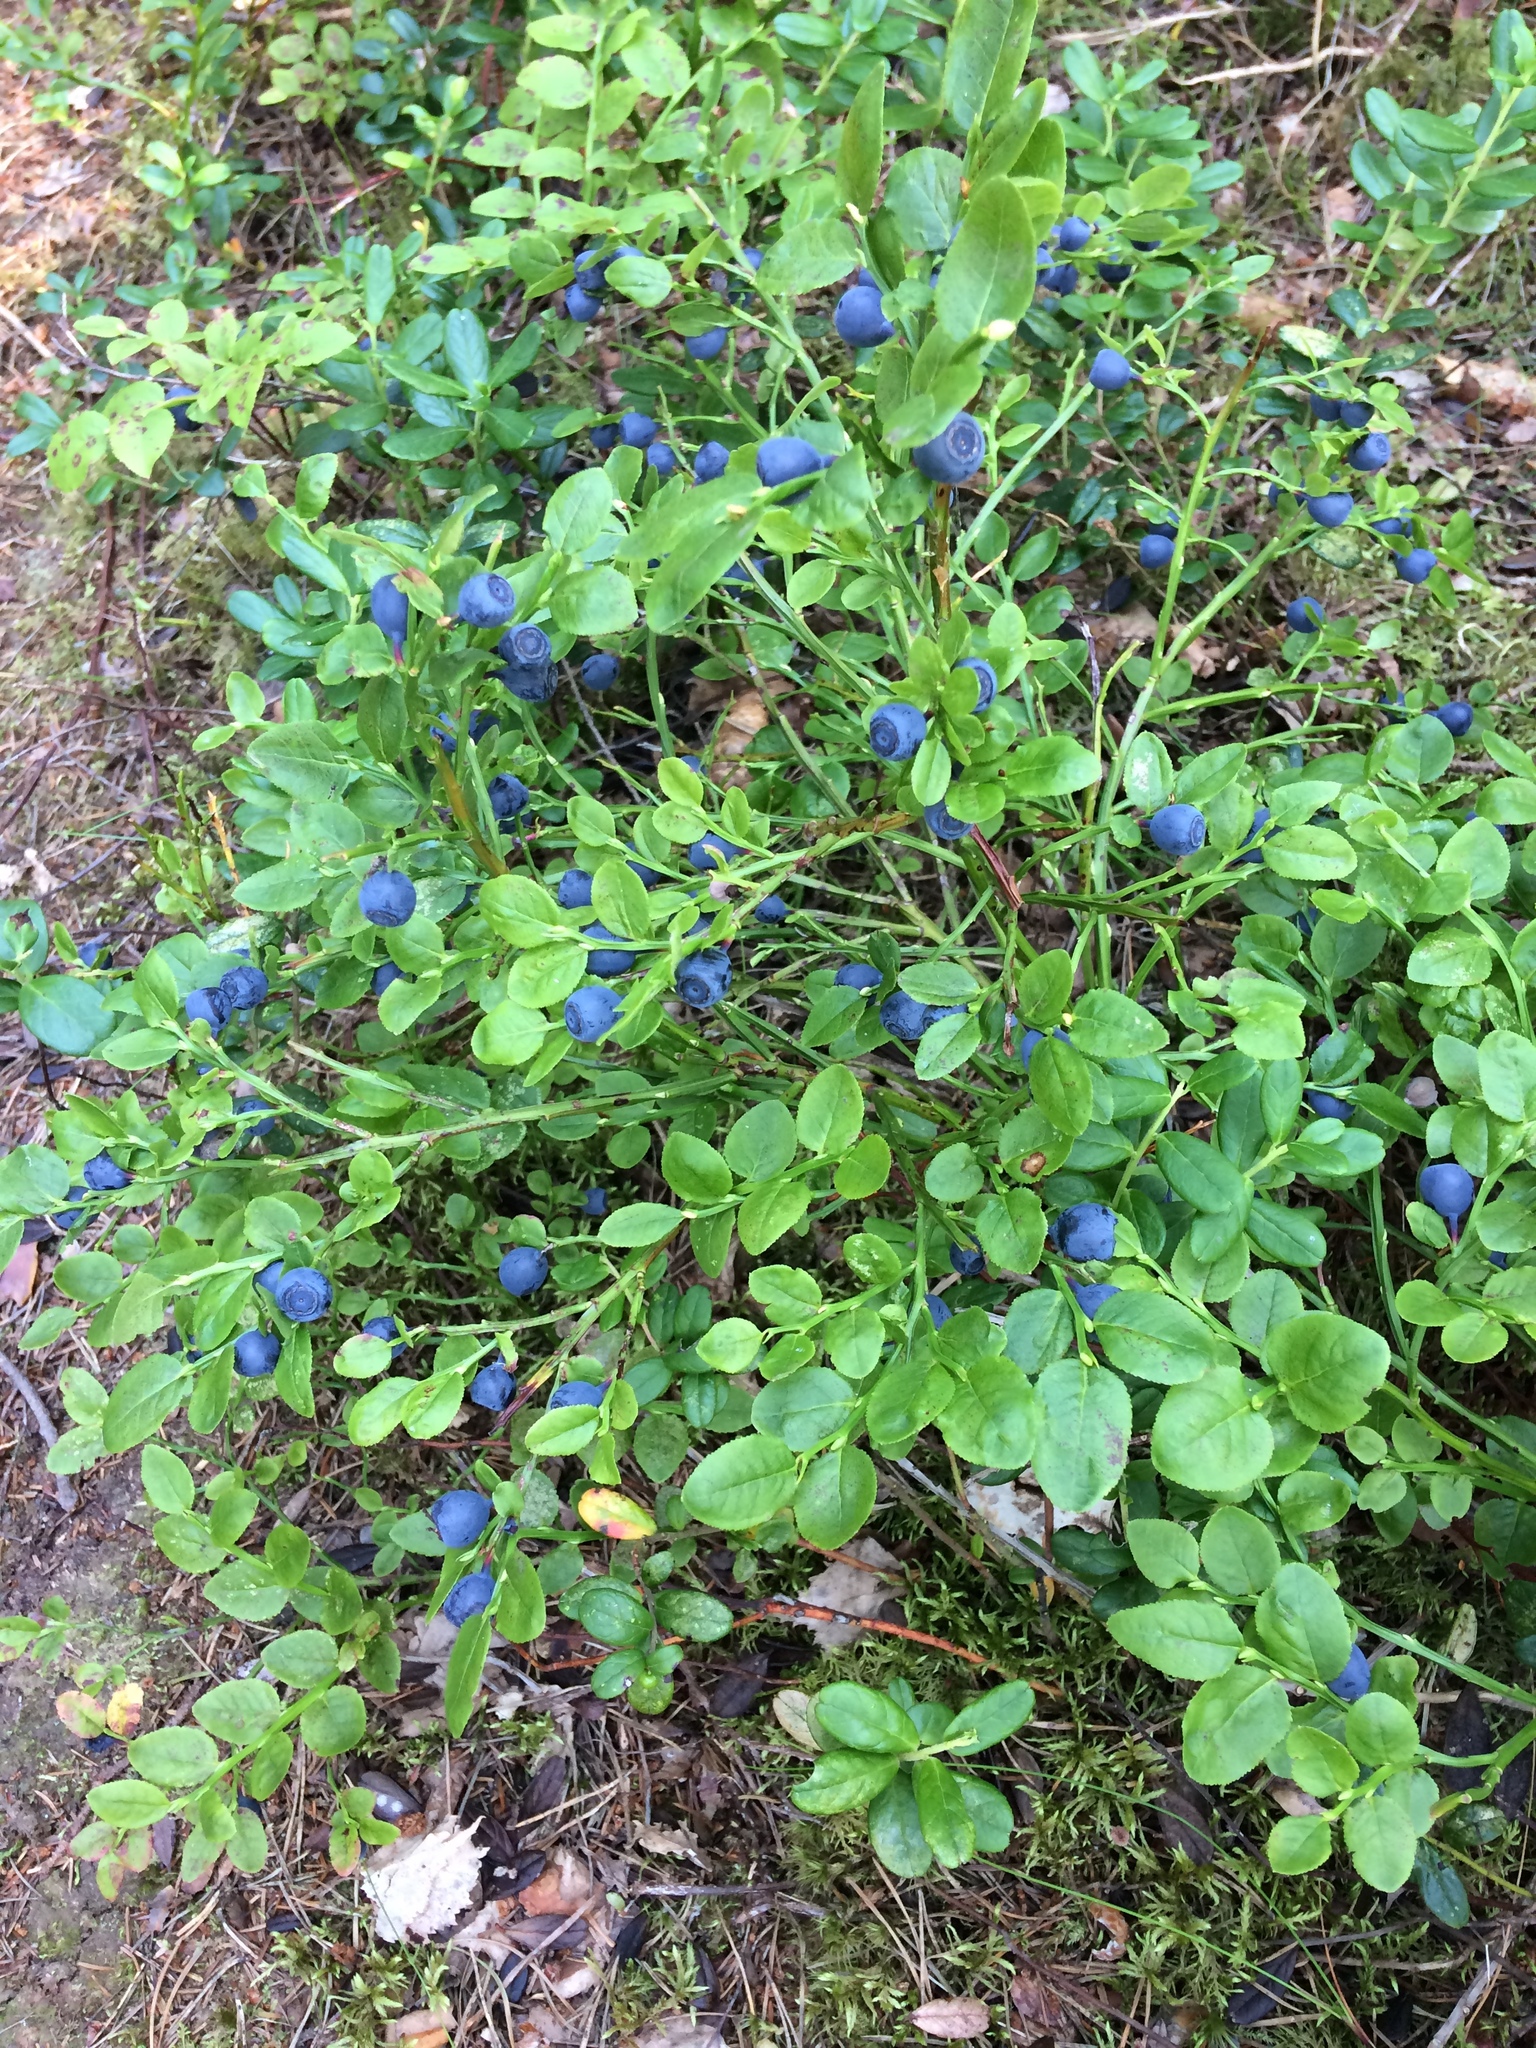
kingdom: Plantae
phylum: Tracheophyta
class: Magnoliopsida
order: Ericales
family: Ericaceae
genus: Vaccinium
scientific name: Vaccinium myrtillus
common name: Bilberry
